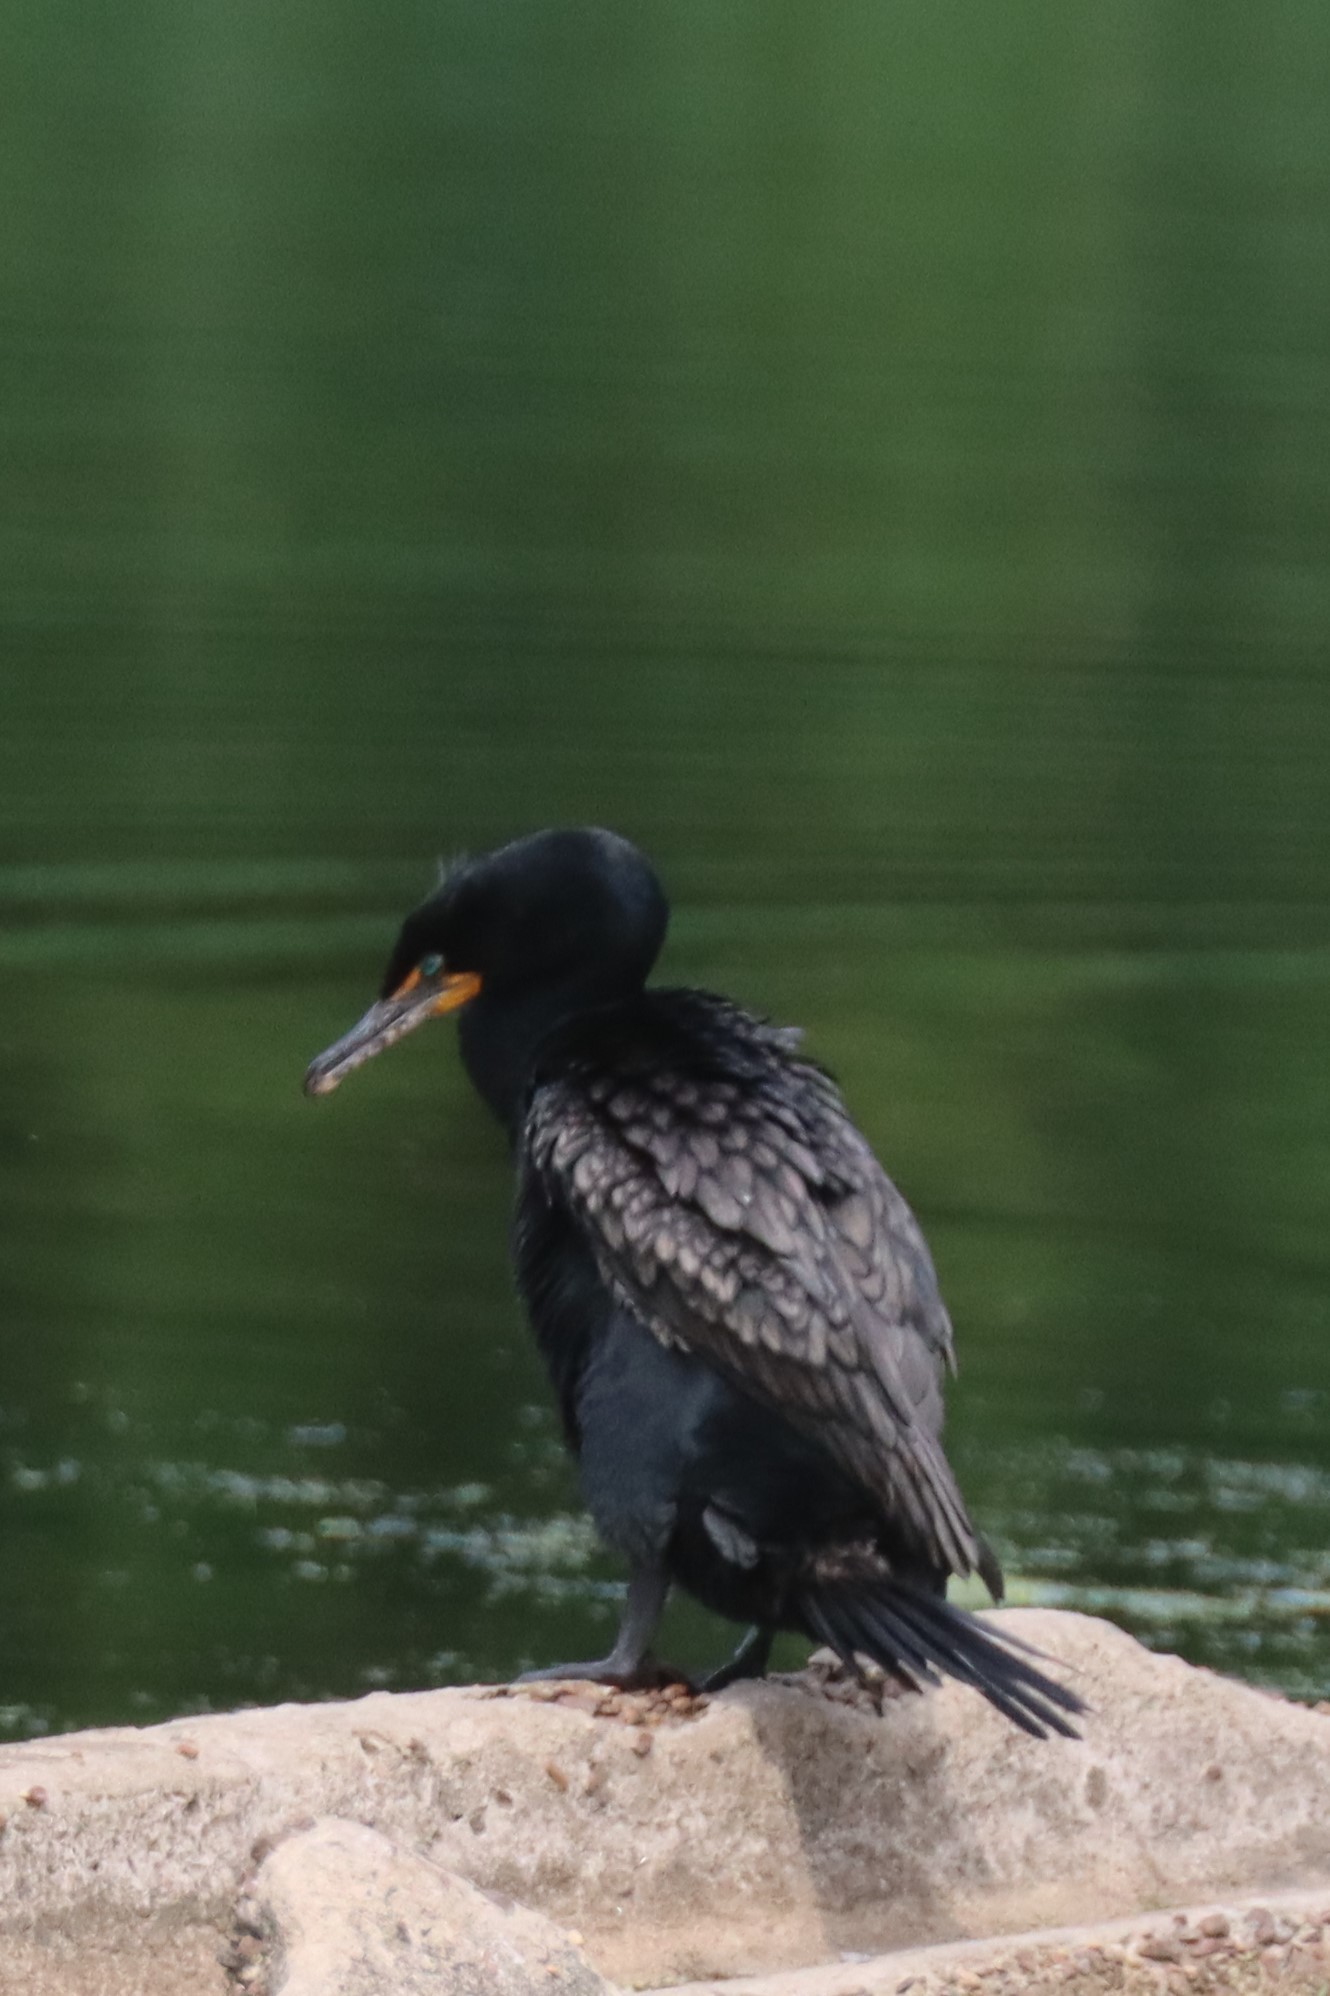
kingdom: Animalia
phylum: Chordata
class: Aves
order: Suliformes
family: Phalacrocoracidae
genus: Phalacrocorax
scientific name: Phalacrocorax auritus
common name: Double-crested cormorant
